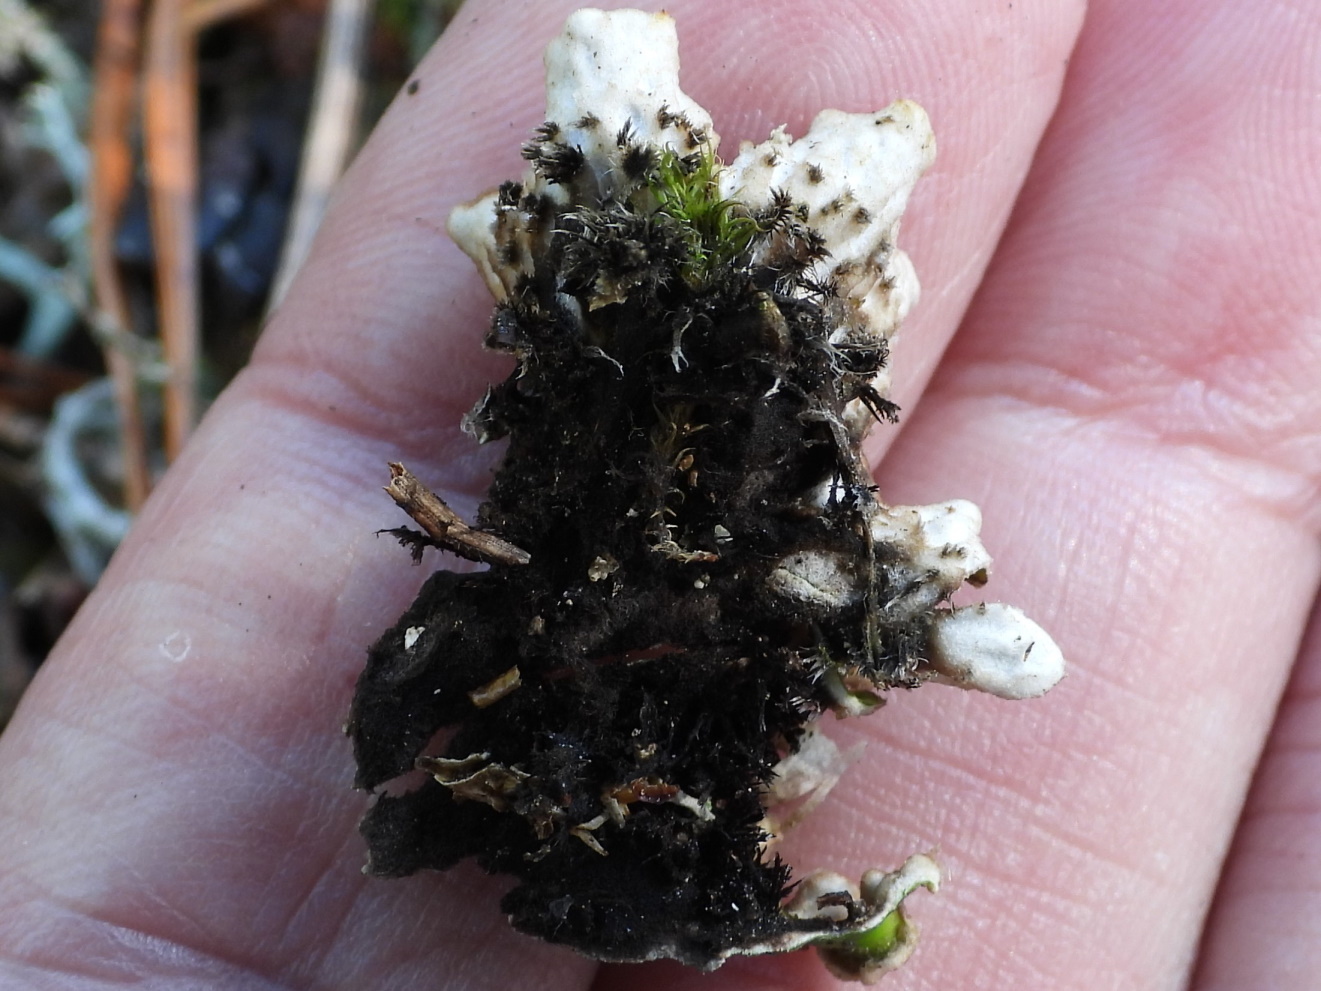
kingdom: Fungi
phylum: Ascomycota
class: Lecanoromycetes
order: Peltigerales
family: Peltigeraceae
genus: Peltigera
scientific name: Peltigera leucophlebia
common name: Ruffled freckle pelt lichen
